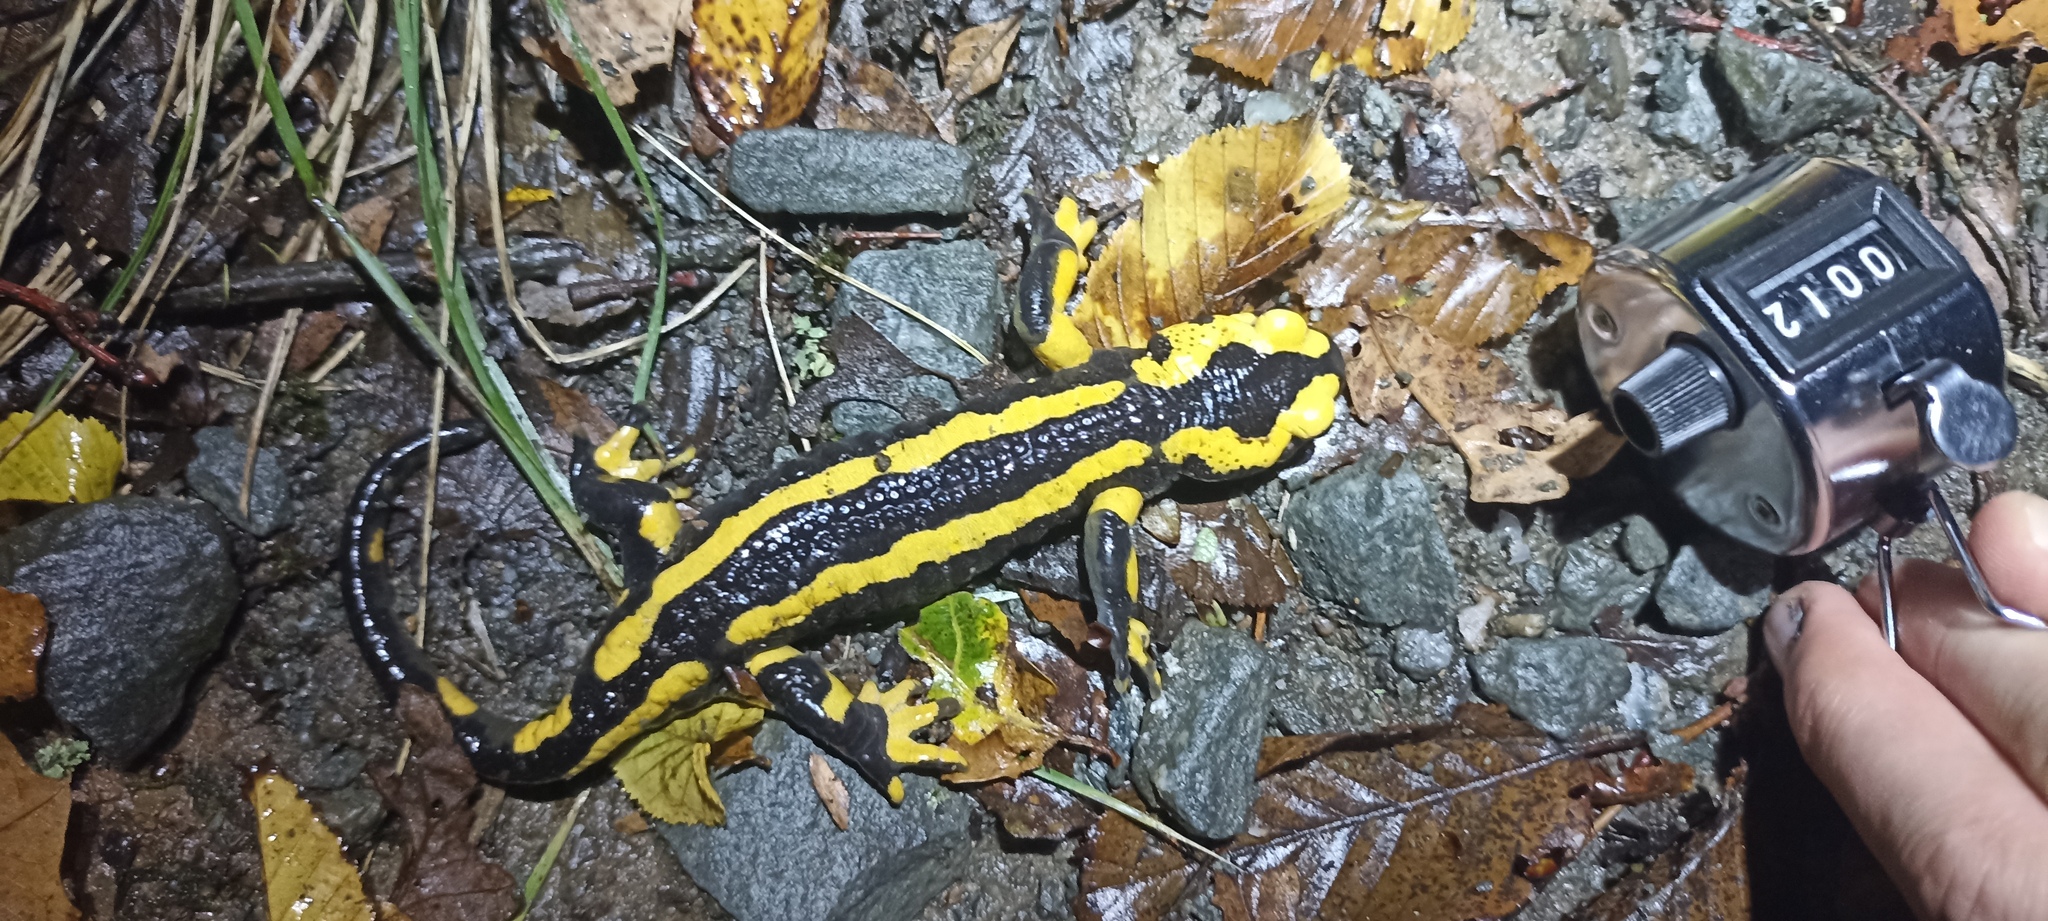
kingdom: Animalia
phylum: Chordata
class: Amphibia
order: Caudata
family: Salamandridae
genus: Salamandra
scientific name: Salamandra salamandra
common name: Fire salamander
